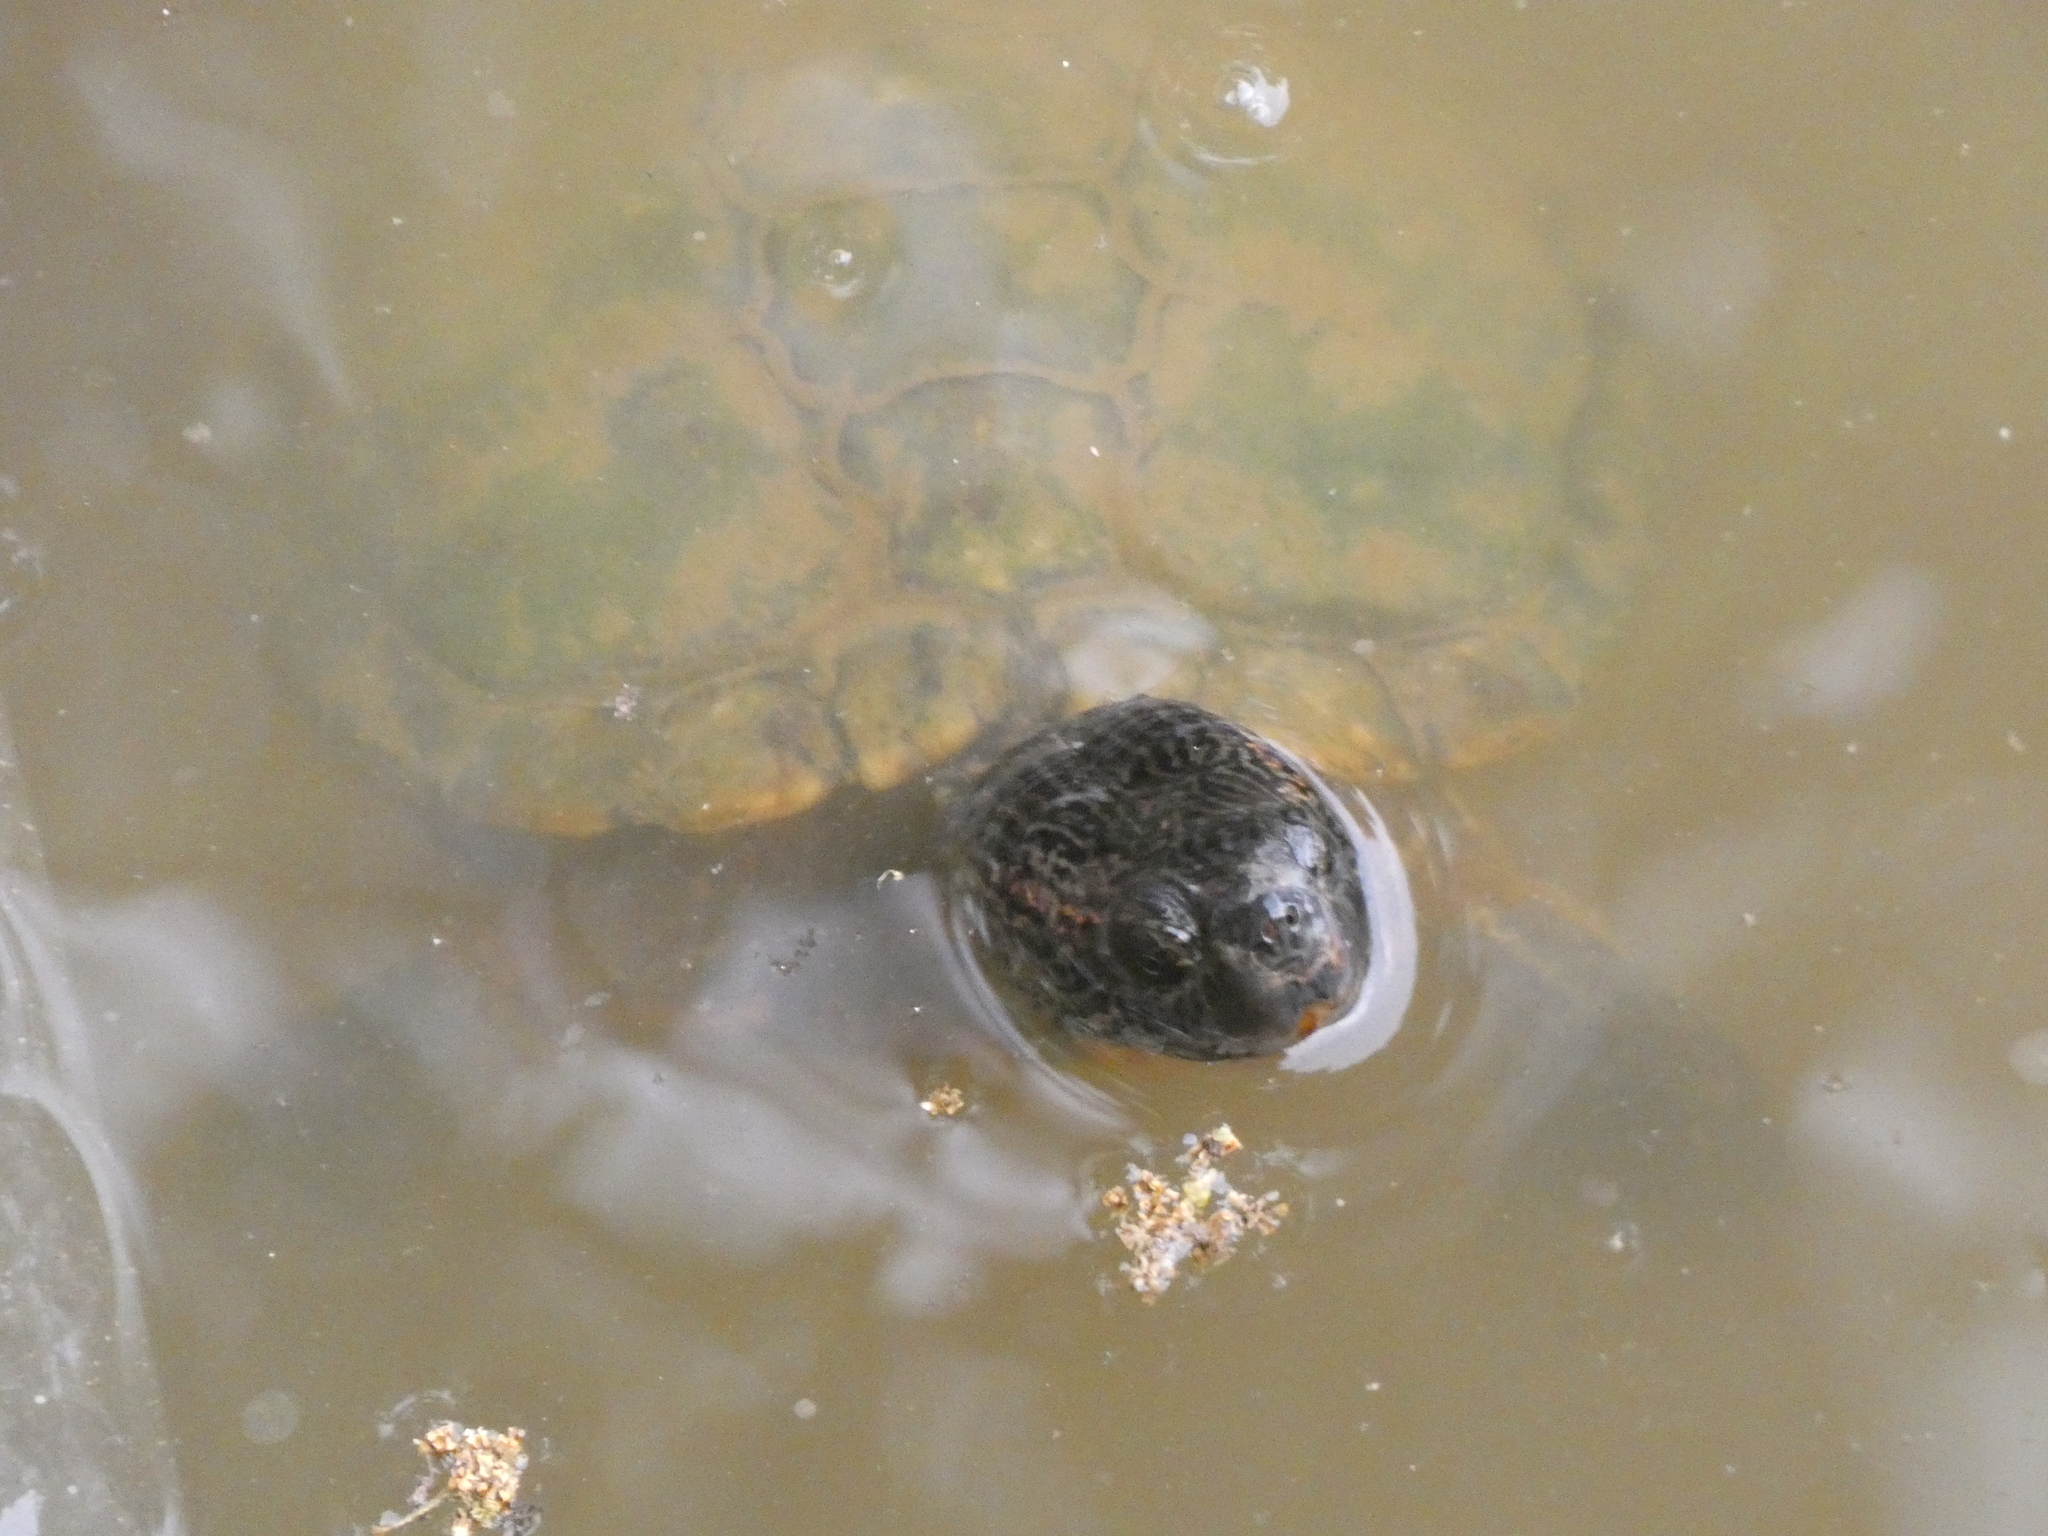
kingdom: Animalia
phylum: Chordata
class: Testudines
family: Emydidae
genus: Trachemys
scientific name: Trachemys scripta
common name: Slider
